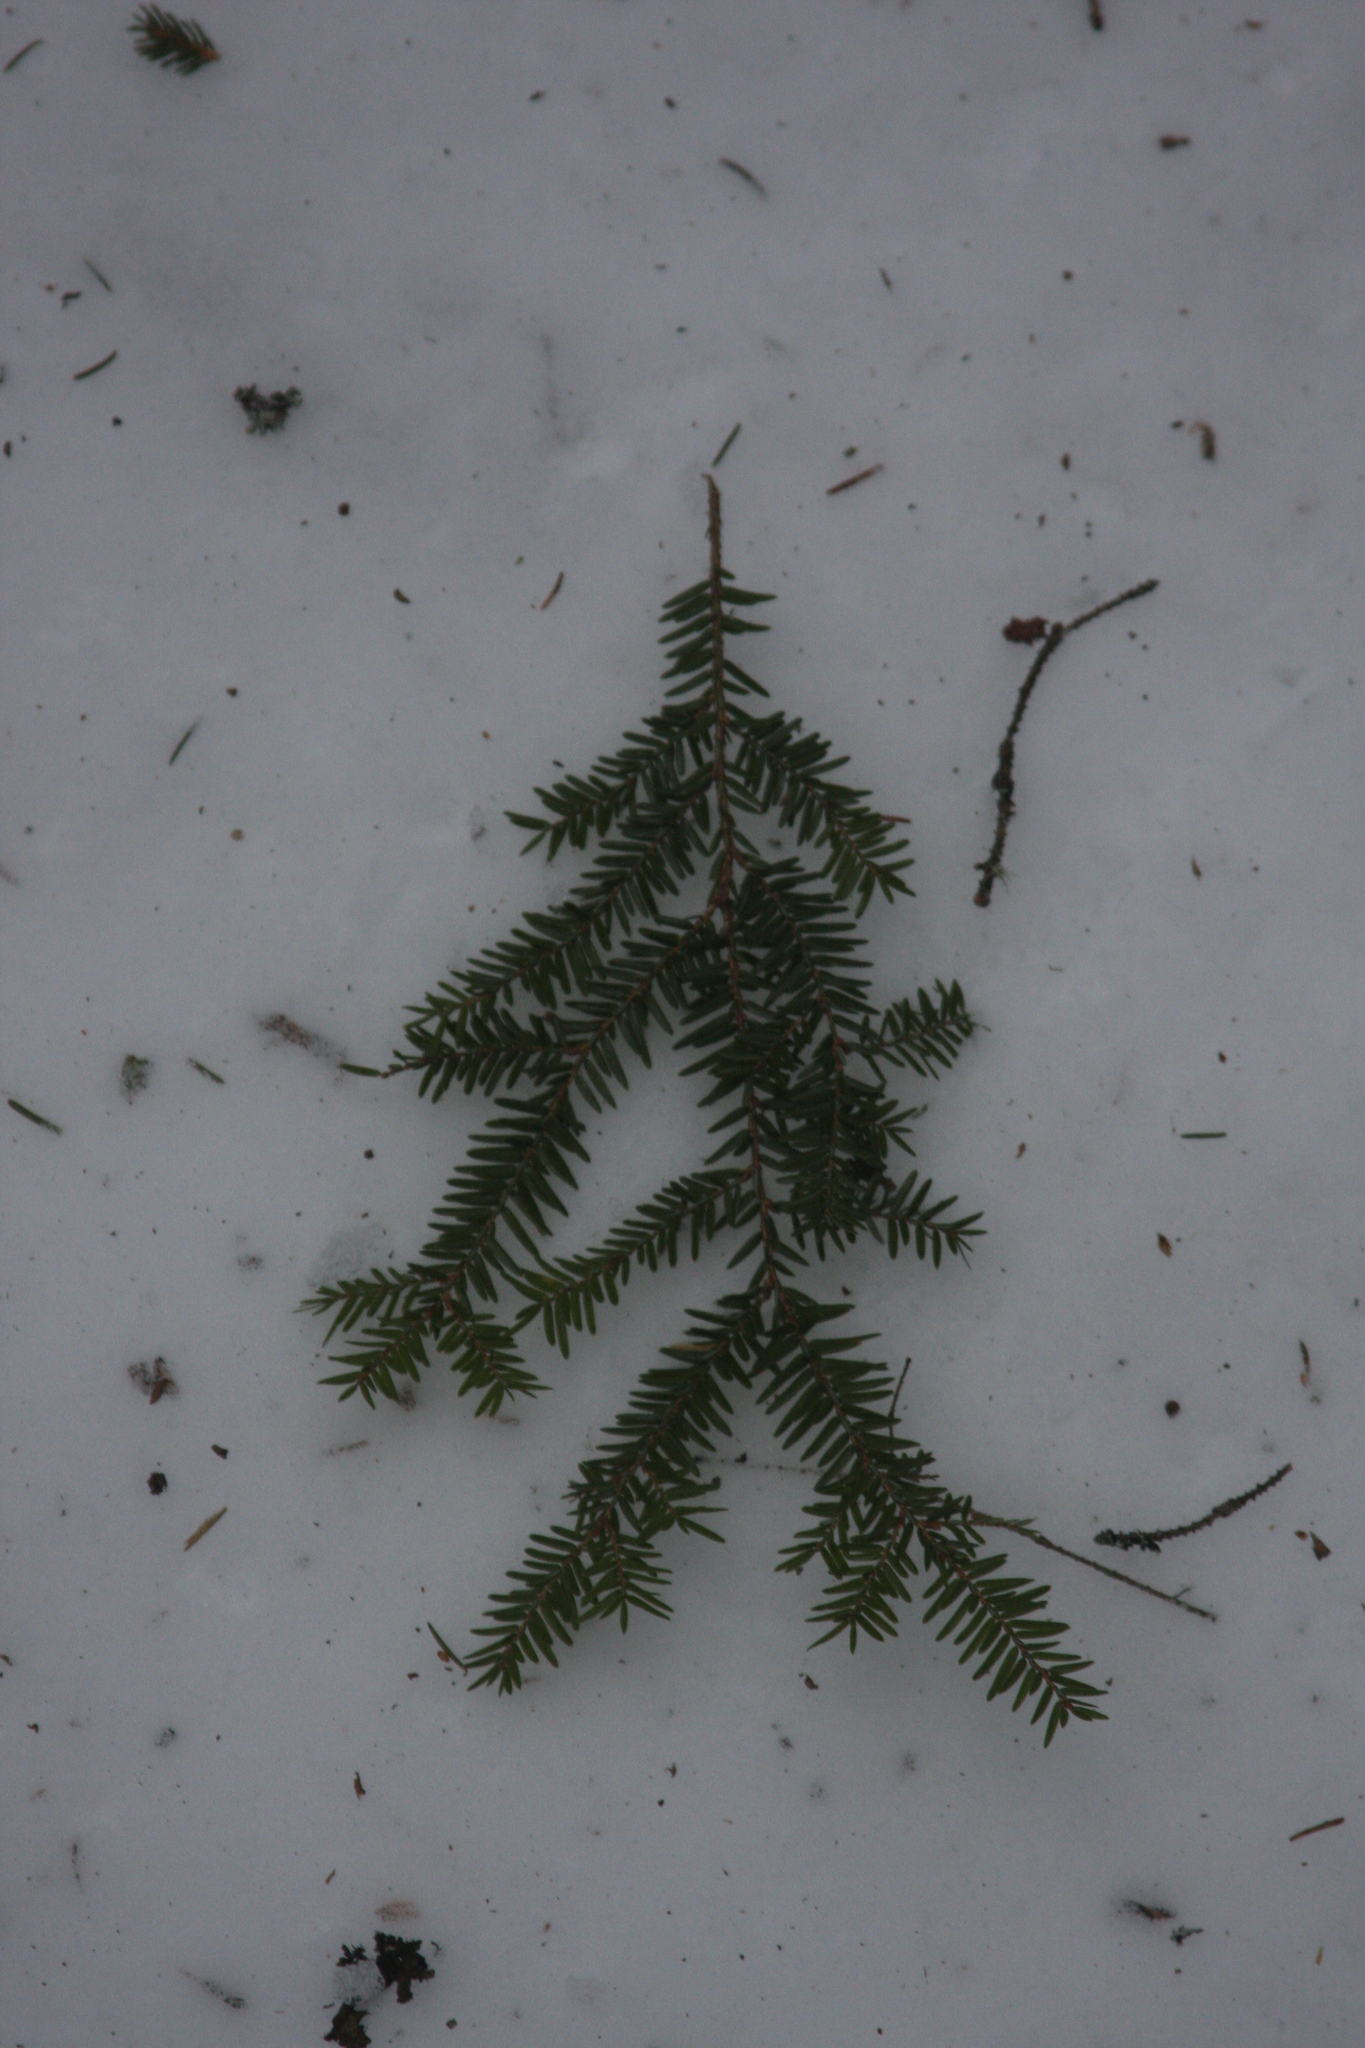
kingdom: Plantae
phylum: Tracheophyta
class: Pinopsida
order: Pinales
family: Pinaceae
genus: Tsuga
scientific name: Tsuga canadensis
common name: Eastern hemlock
